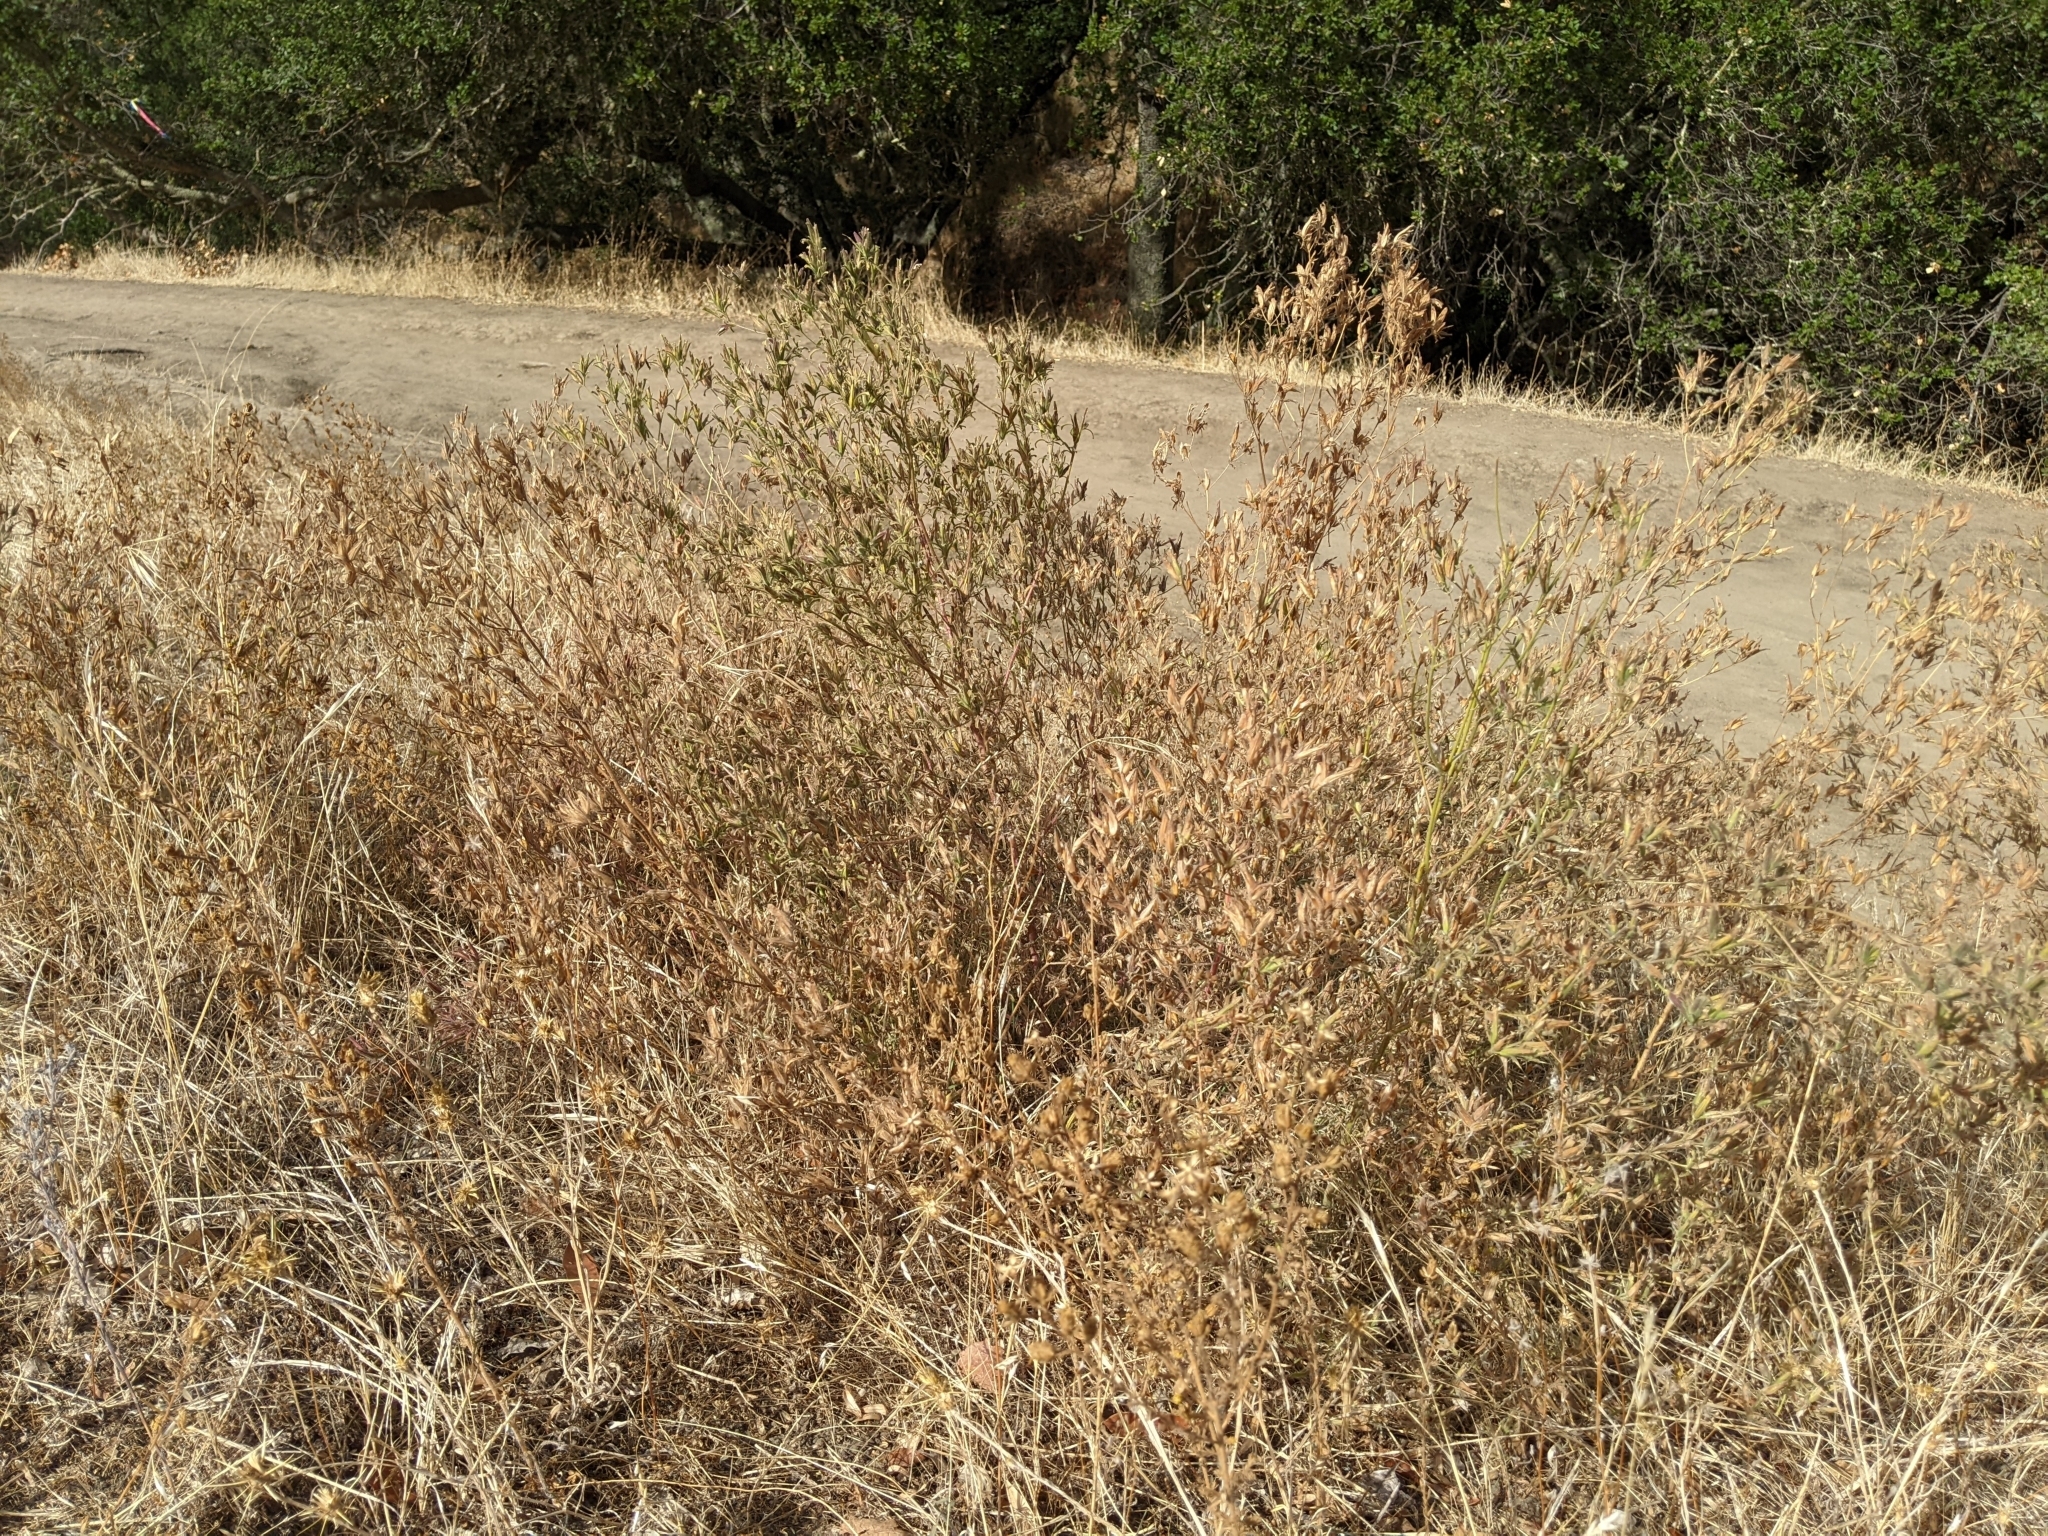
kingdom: Plantae
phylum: Tracheophyta
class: Magnoliopsida
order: Lamiales
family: Orobanchaceae
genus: Cordylanthus
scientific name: Cordylanthus pilosus
